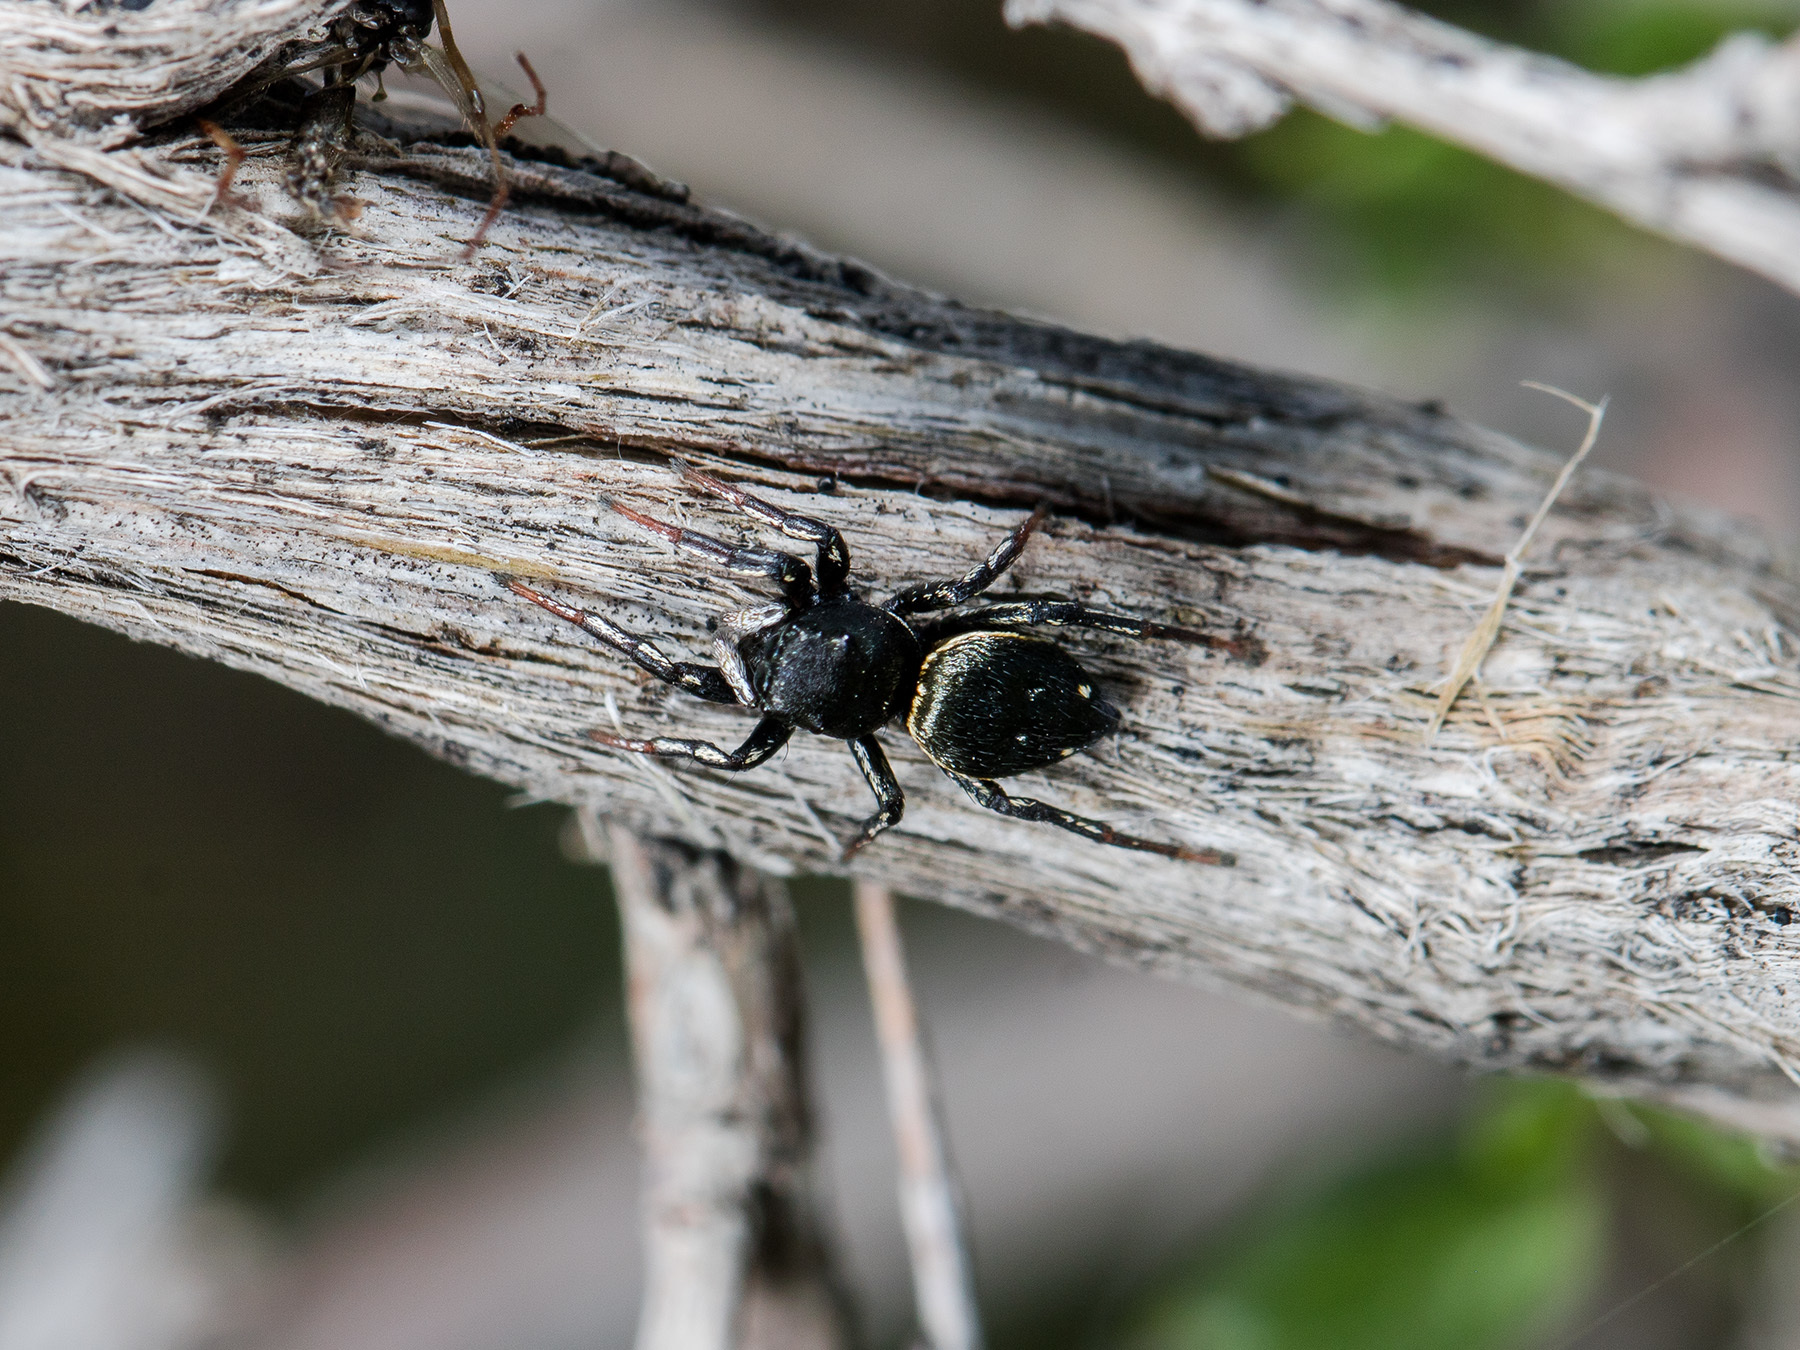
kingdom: Animalia
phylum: Arthropoda
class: Arachnida
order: Araneae
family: Salticidae
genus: Heliophanus
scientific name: Heliophanus chovdensis
